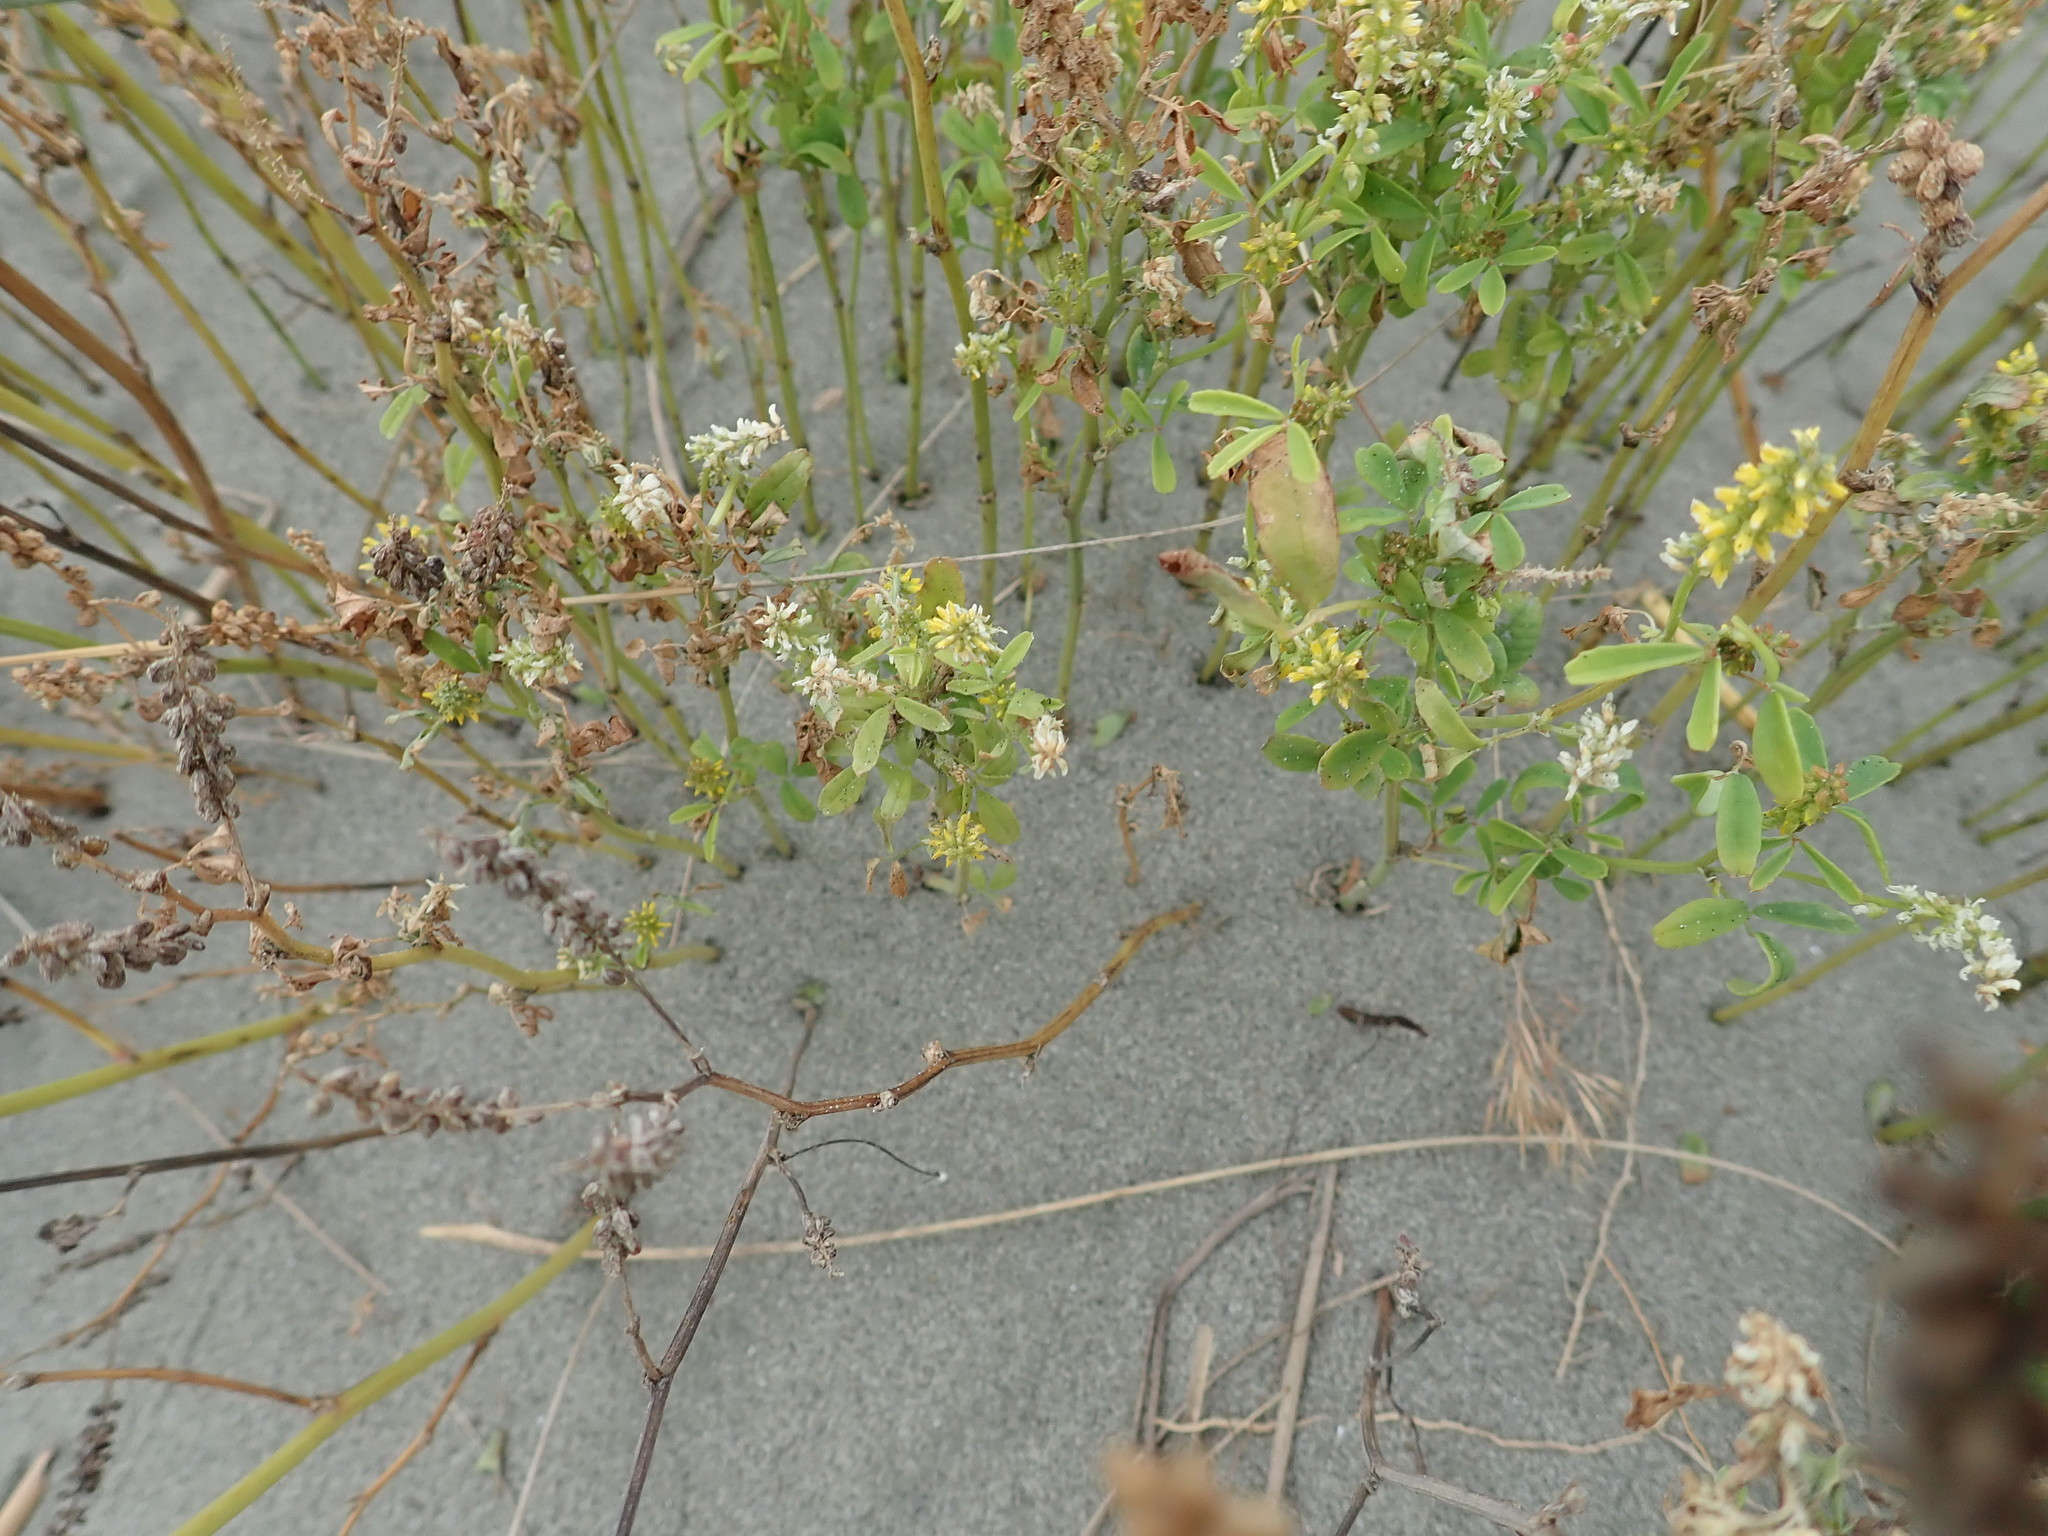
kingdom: Plantae
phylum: Tracheophyta
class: Magnoliopsida
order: Fabales
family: Fabaceae
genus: Melilotus
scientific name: Melilotus indicus
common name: Small melilot
